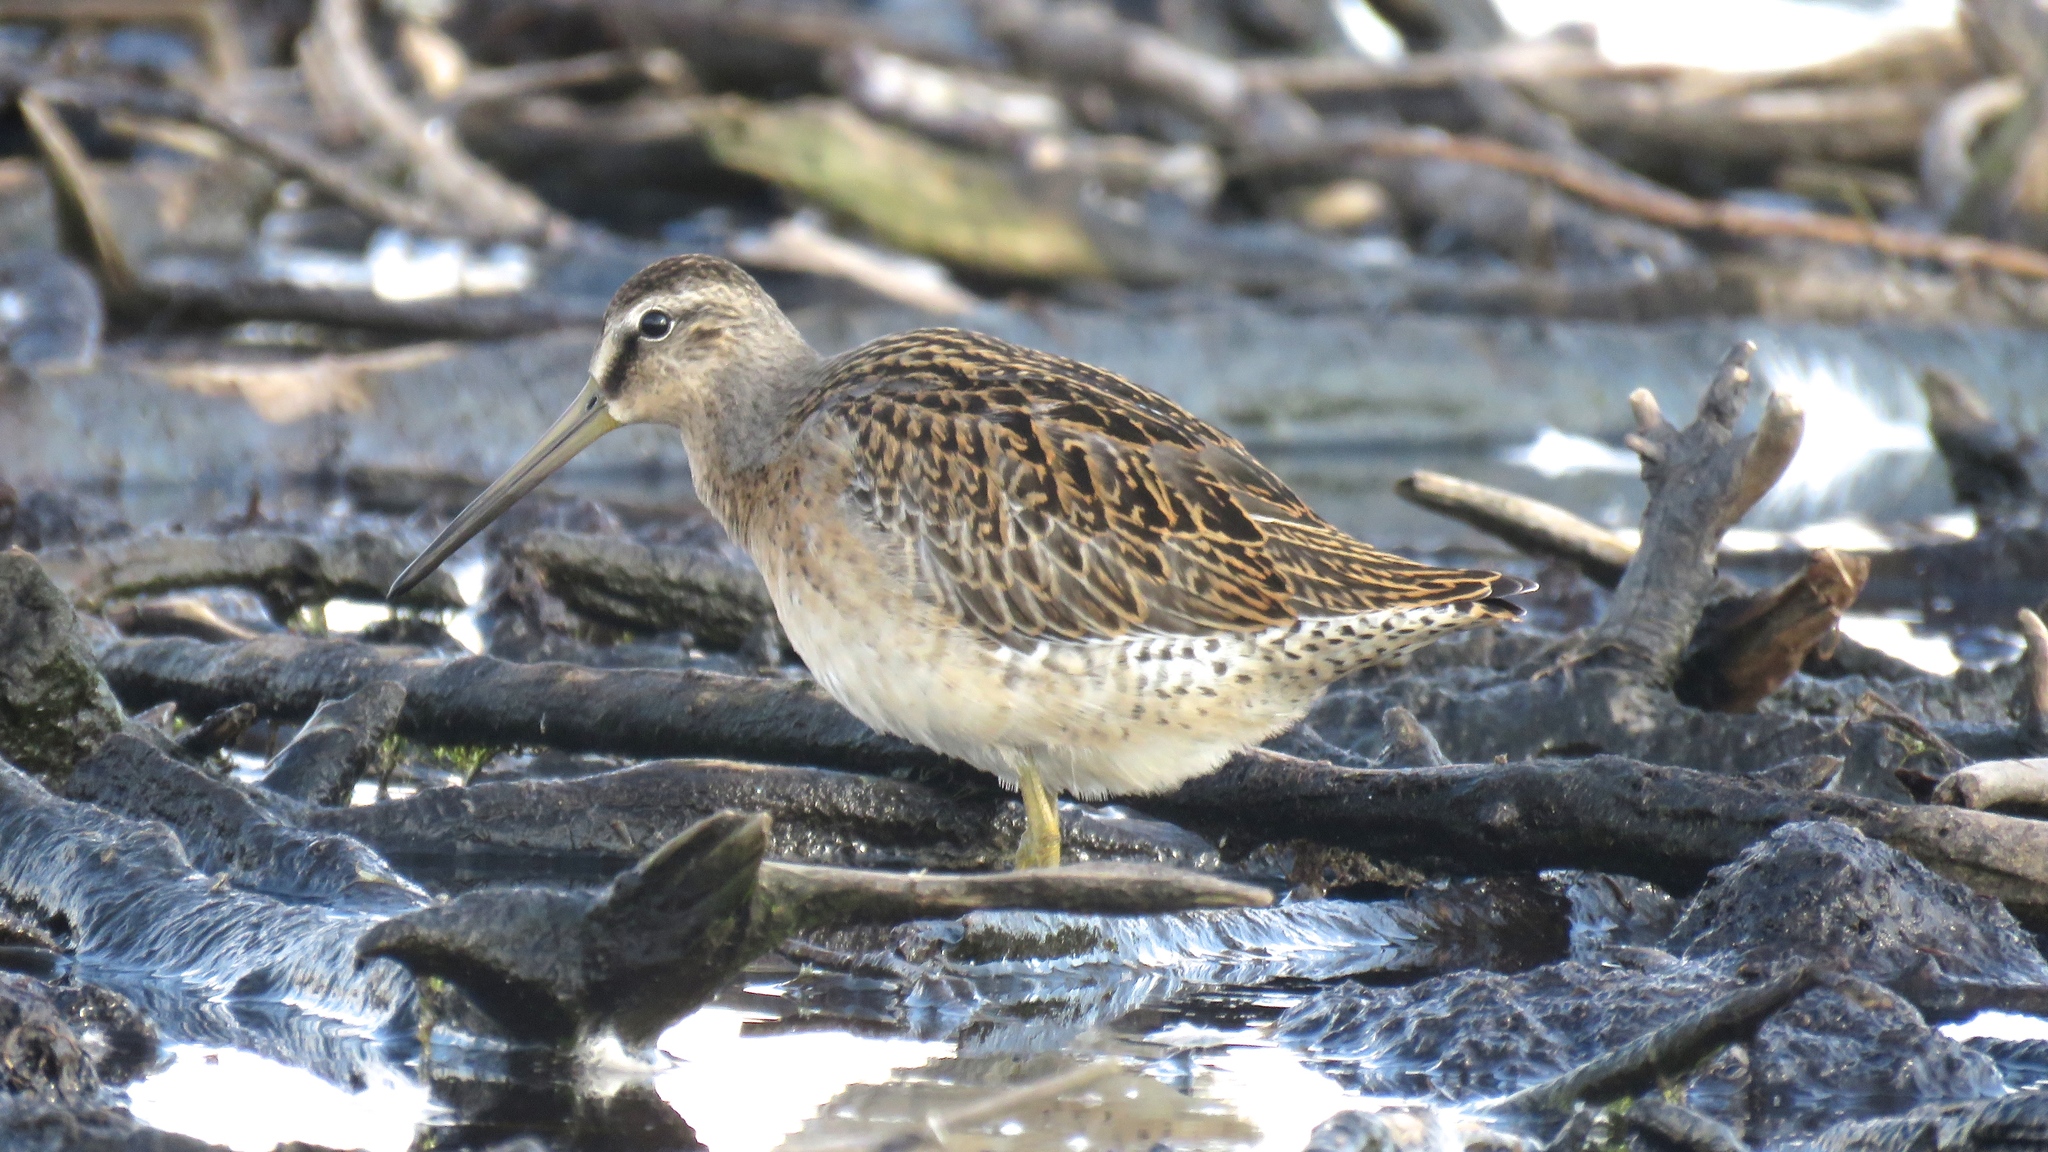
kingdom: Animalia
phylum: Chordata
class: Aves
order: Charadriiformes
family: Scolopacidae
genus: Limnodromus
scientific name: Limnodromus griseus
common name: Short-billed dowitcher
